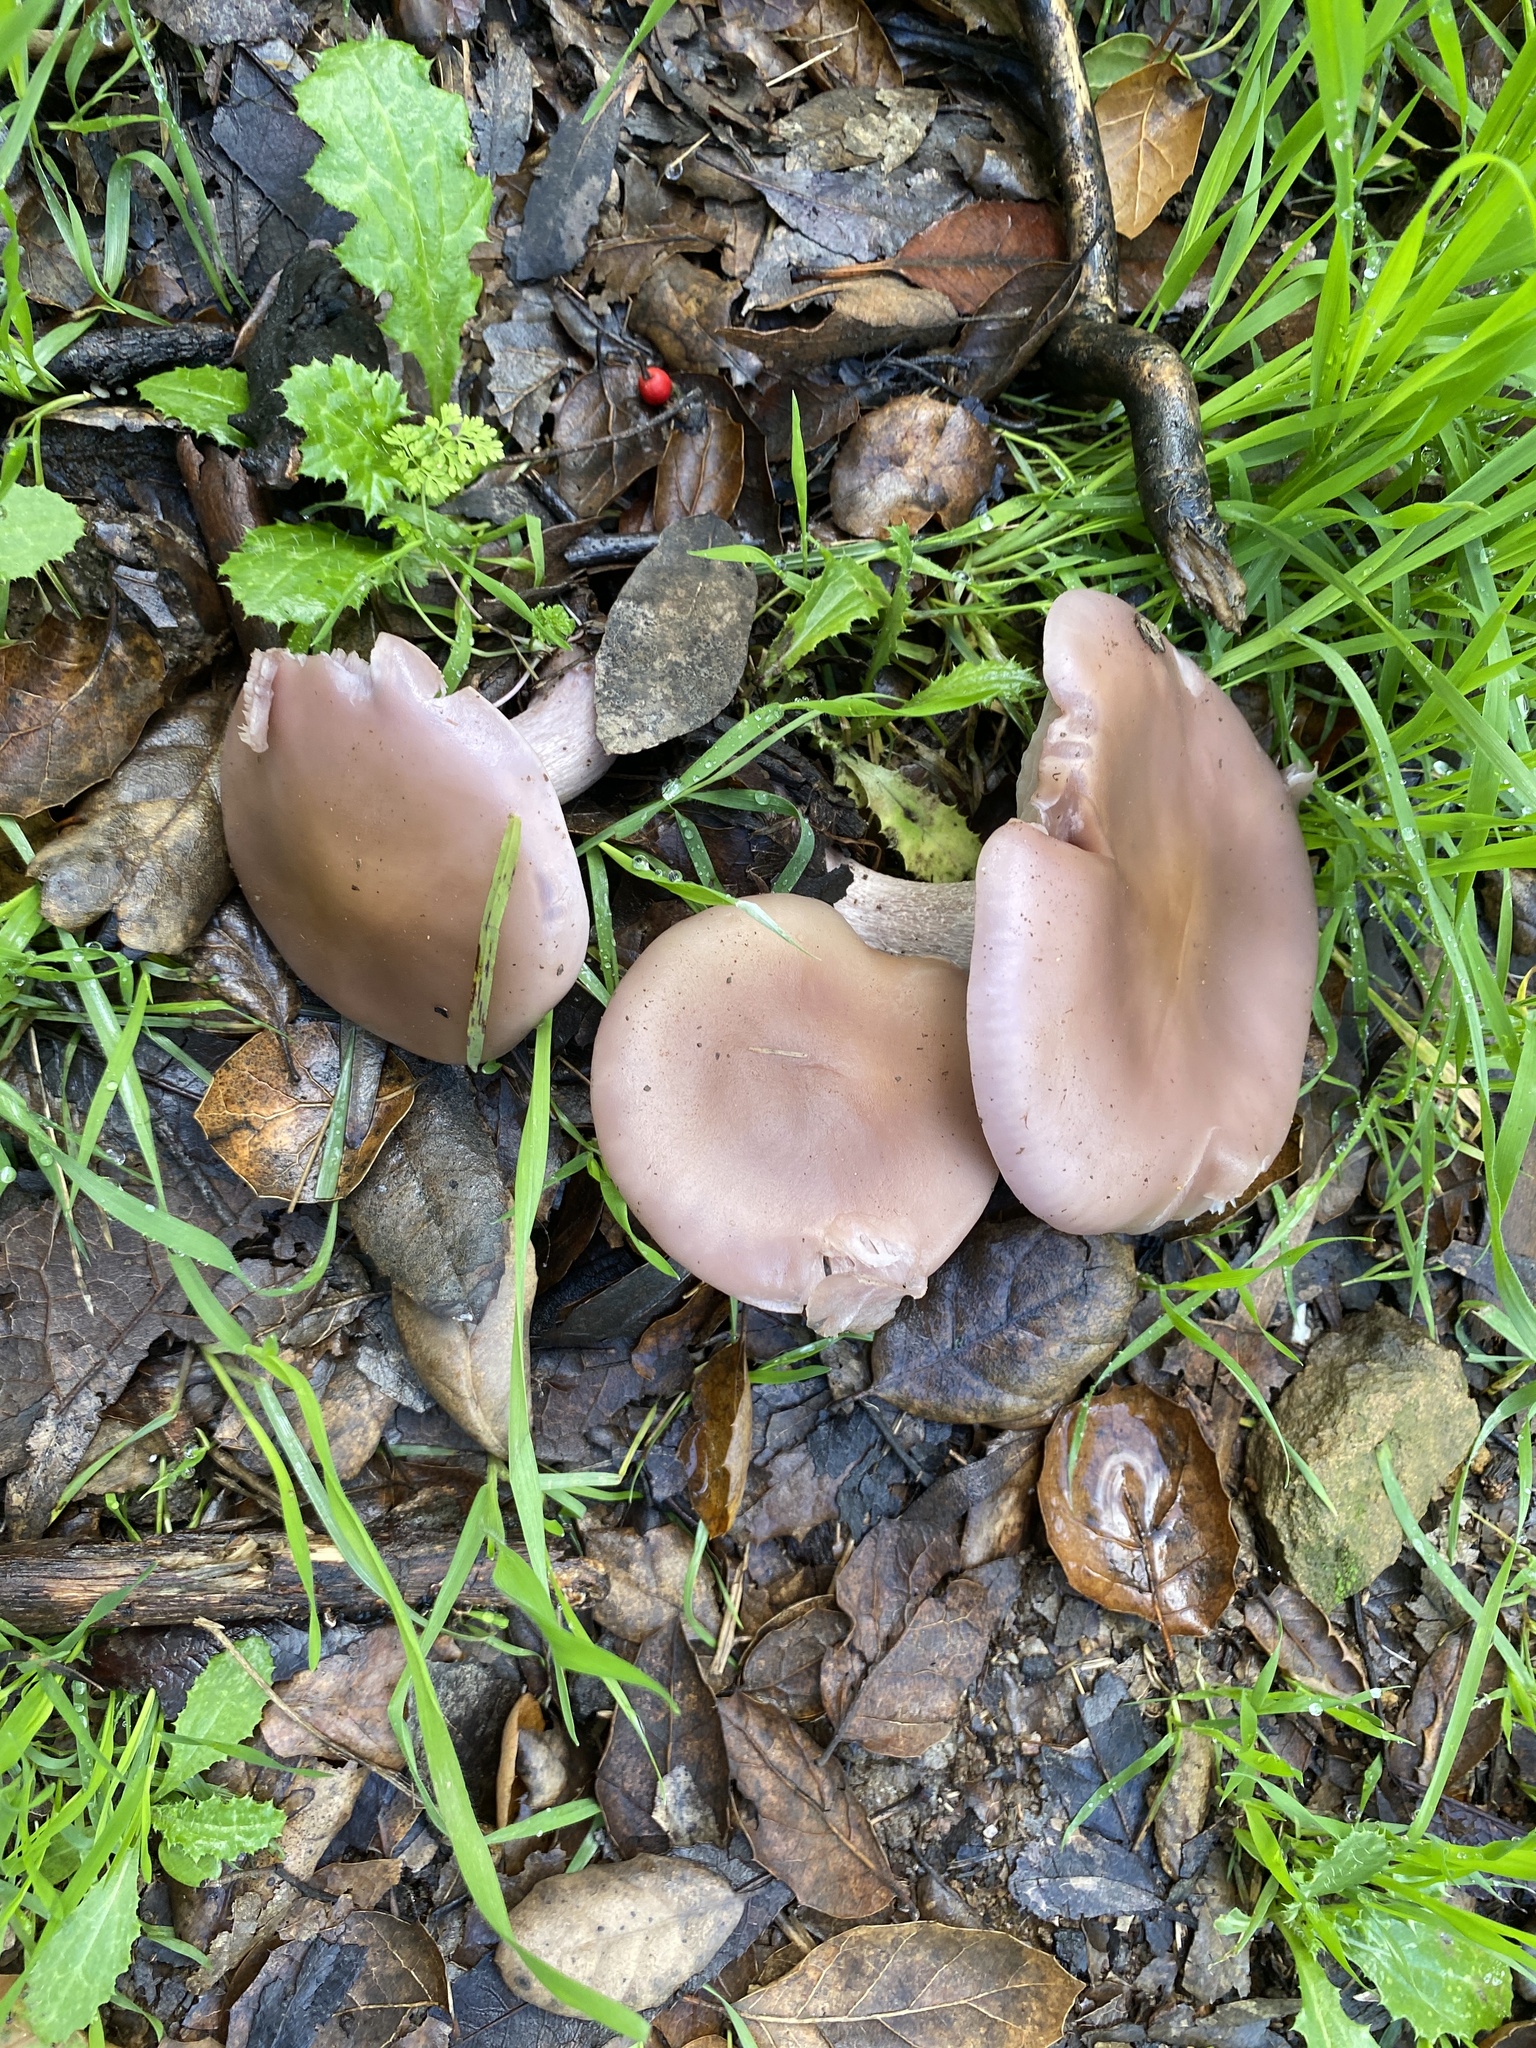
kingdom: Fungi
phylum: Basidiomycota
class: Agaricomycetes
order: Agaricales
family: Tricholomataceae
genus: Collybia
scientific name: Collybia
